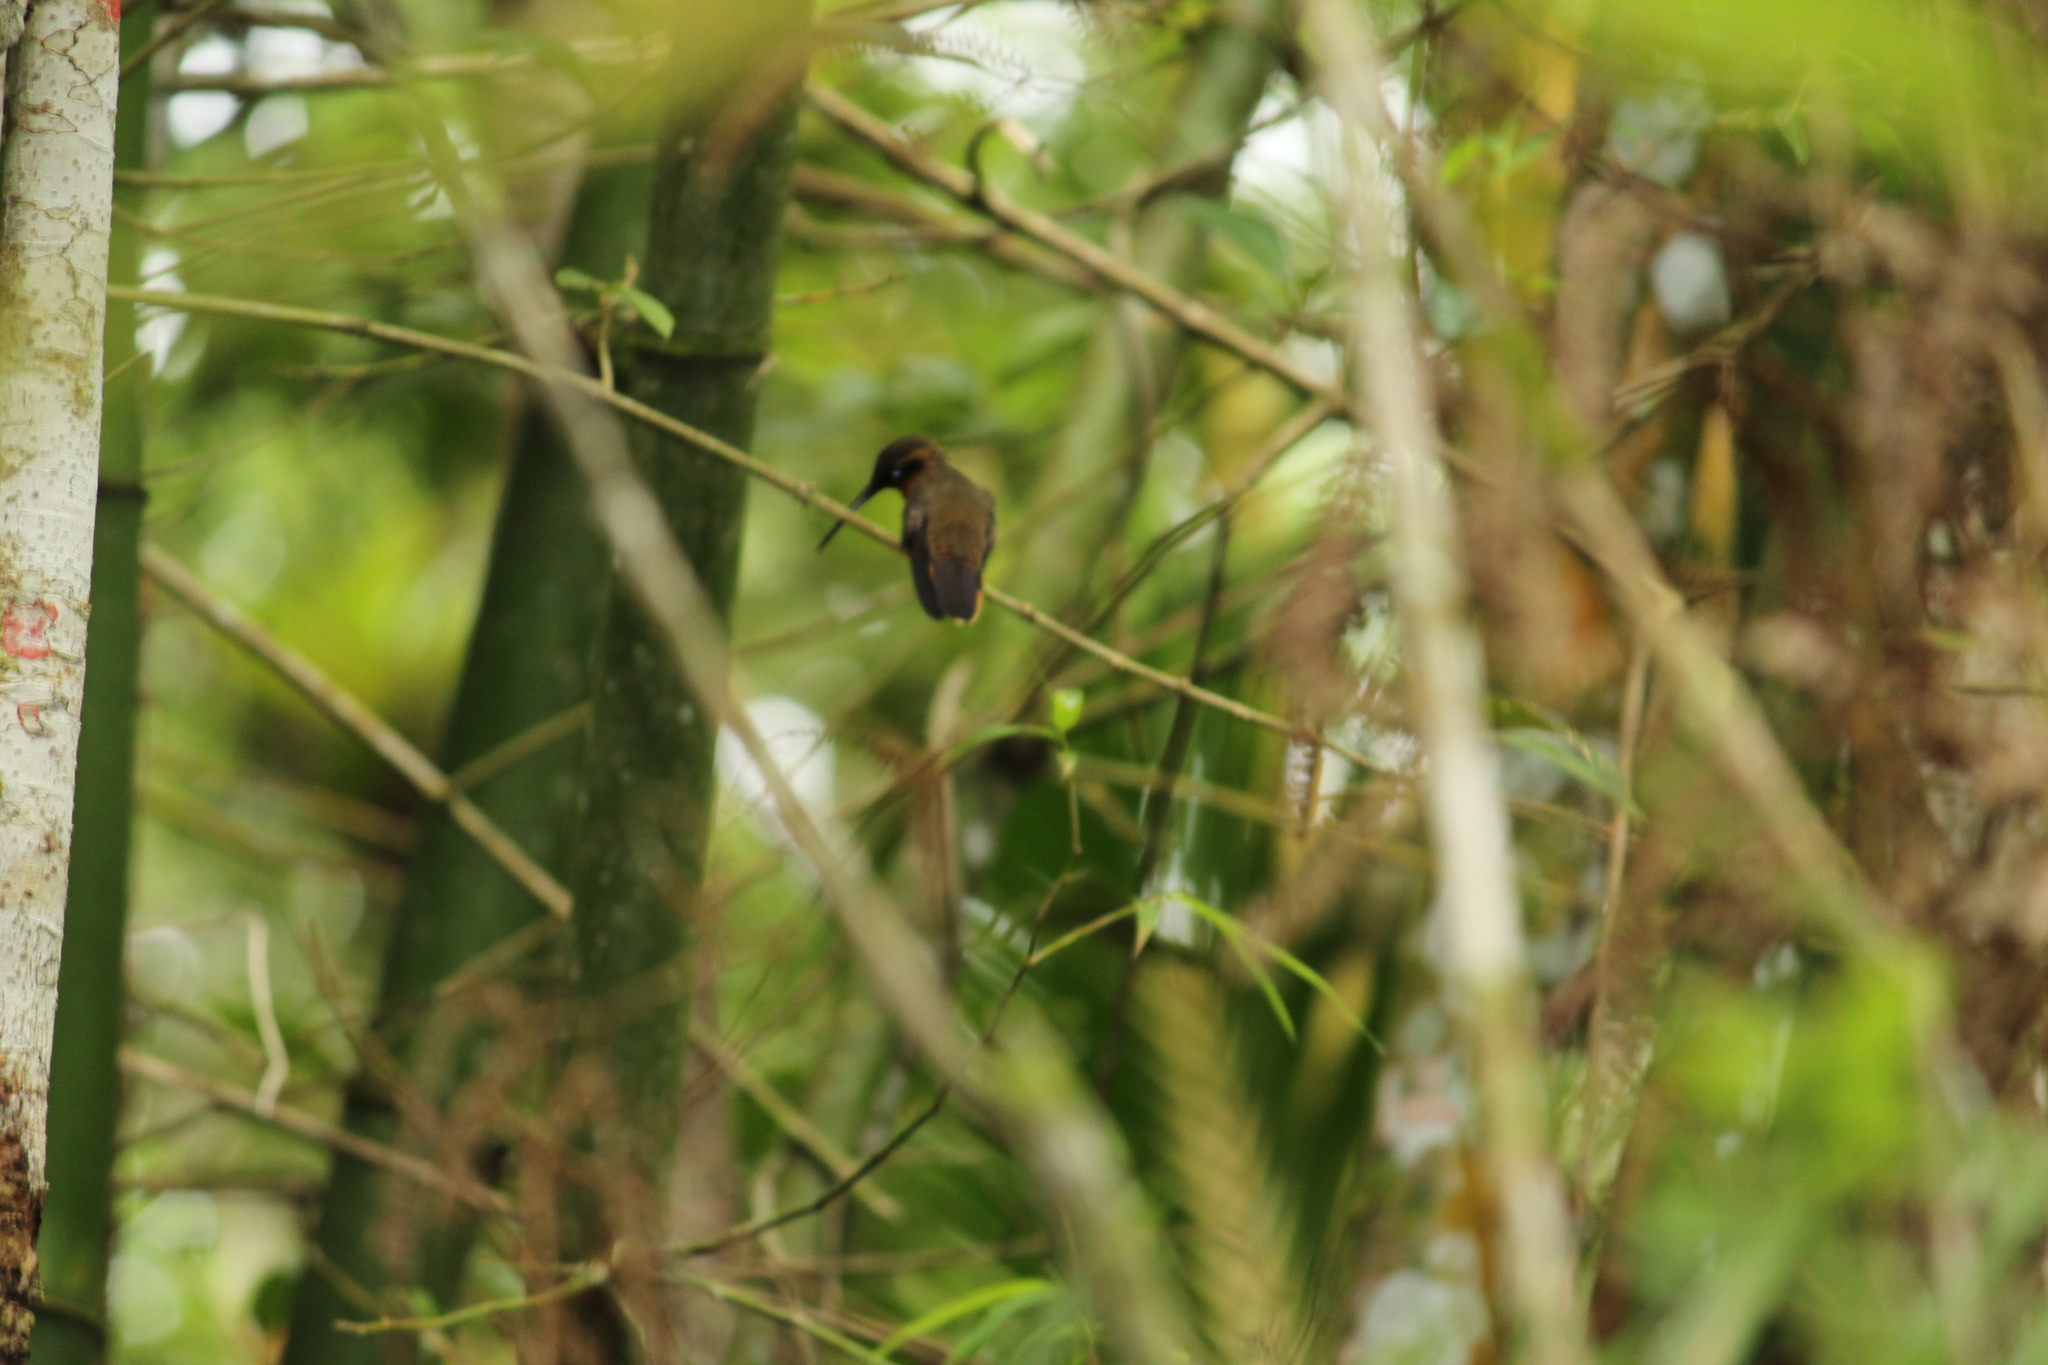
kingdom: Animalia
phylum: Chordata
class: Aves
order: Apodiformes
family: Trochilidae
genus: Phaethornis
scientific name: Phaethornis eurynome
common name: Scale-throated hermit
